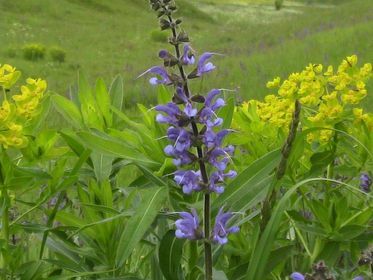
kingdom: Plantae
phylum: Tracheophyta
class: Magnoliopsida
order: Lamiales
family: Lamiaceae
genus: Salvia
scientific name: Salvia pratensis
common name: Meadow sage
